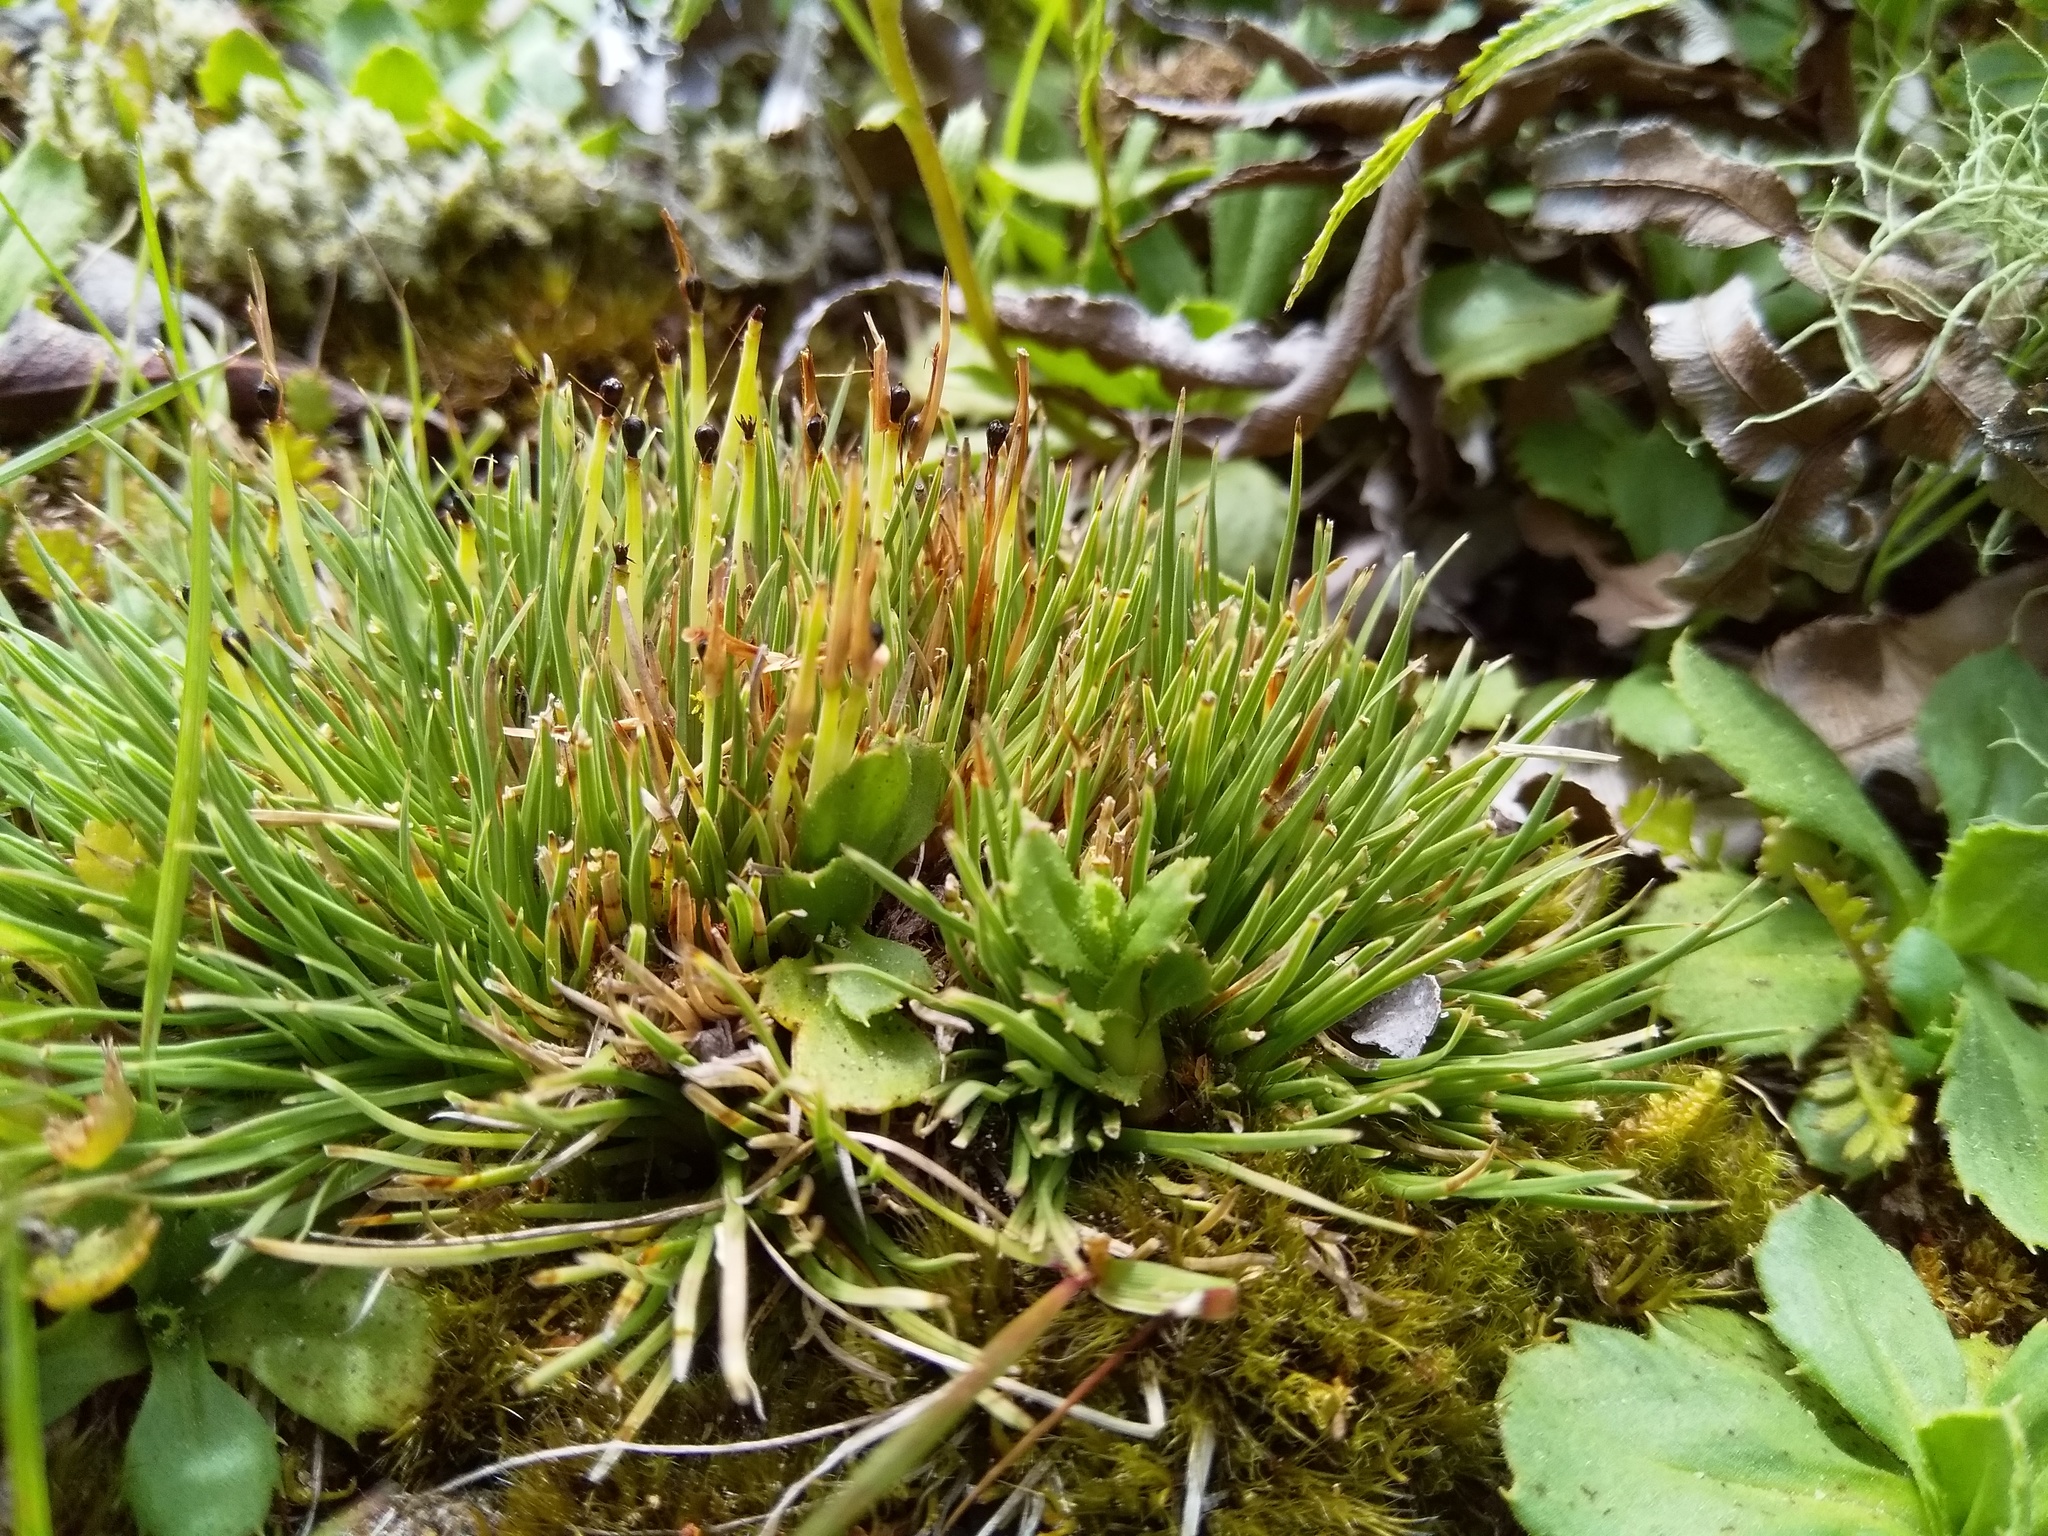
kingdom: Plantae
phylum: Tracheophyta
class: Liliopsida
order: Poales
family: Cyperaceae
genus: Oreobolus
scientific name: Oreobolus pectinatus
